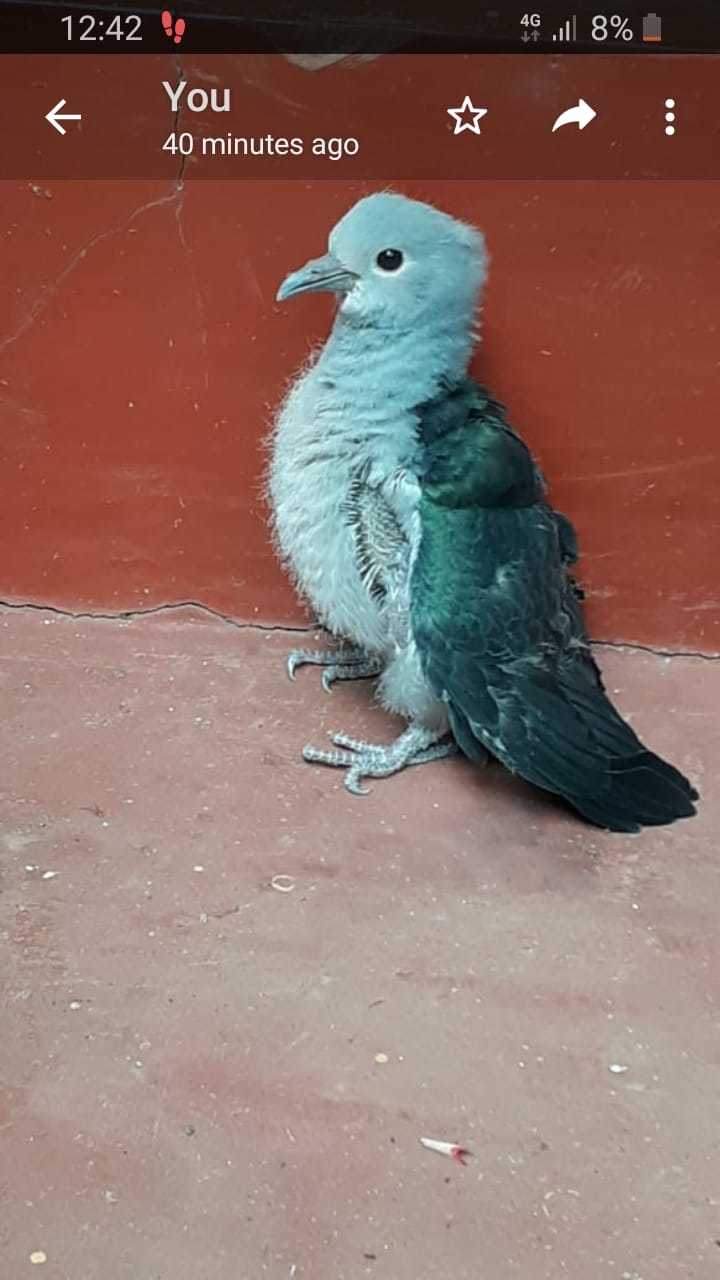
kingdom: Animalia
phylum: Chordata
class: Aves
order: Columbiformes
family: Columbidae
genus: Ducula
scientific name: Ducula aenea
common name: Green imperial pigeon
